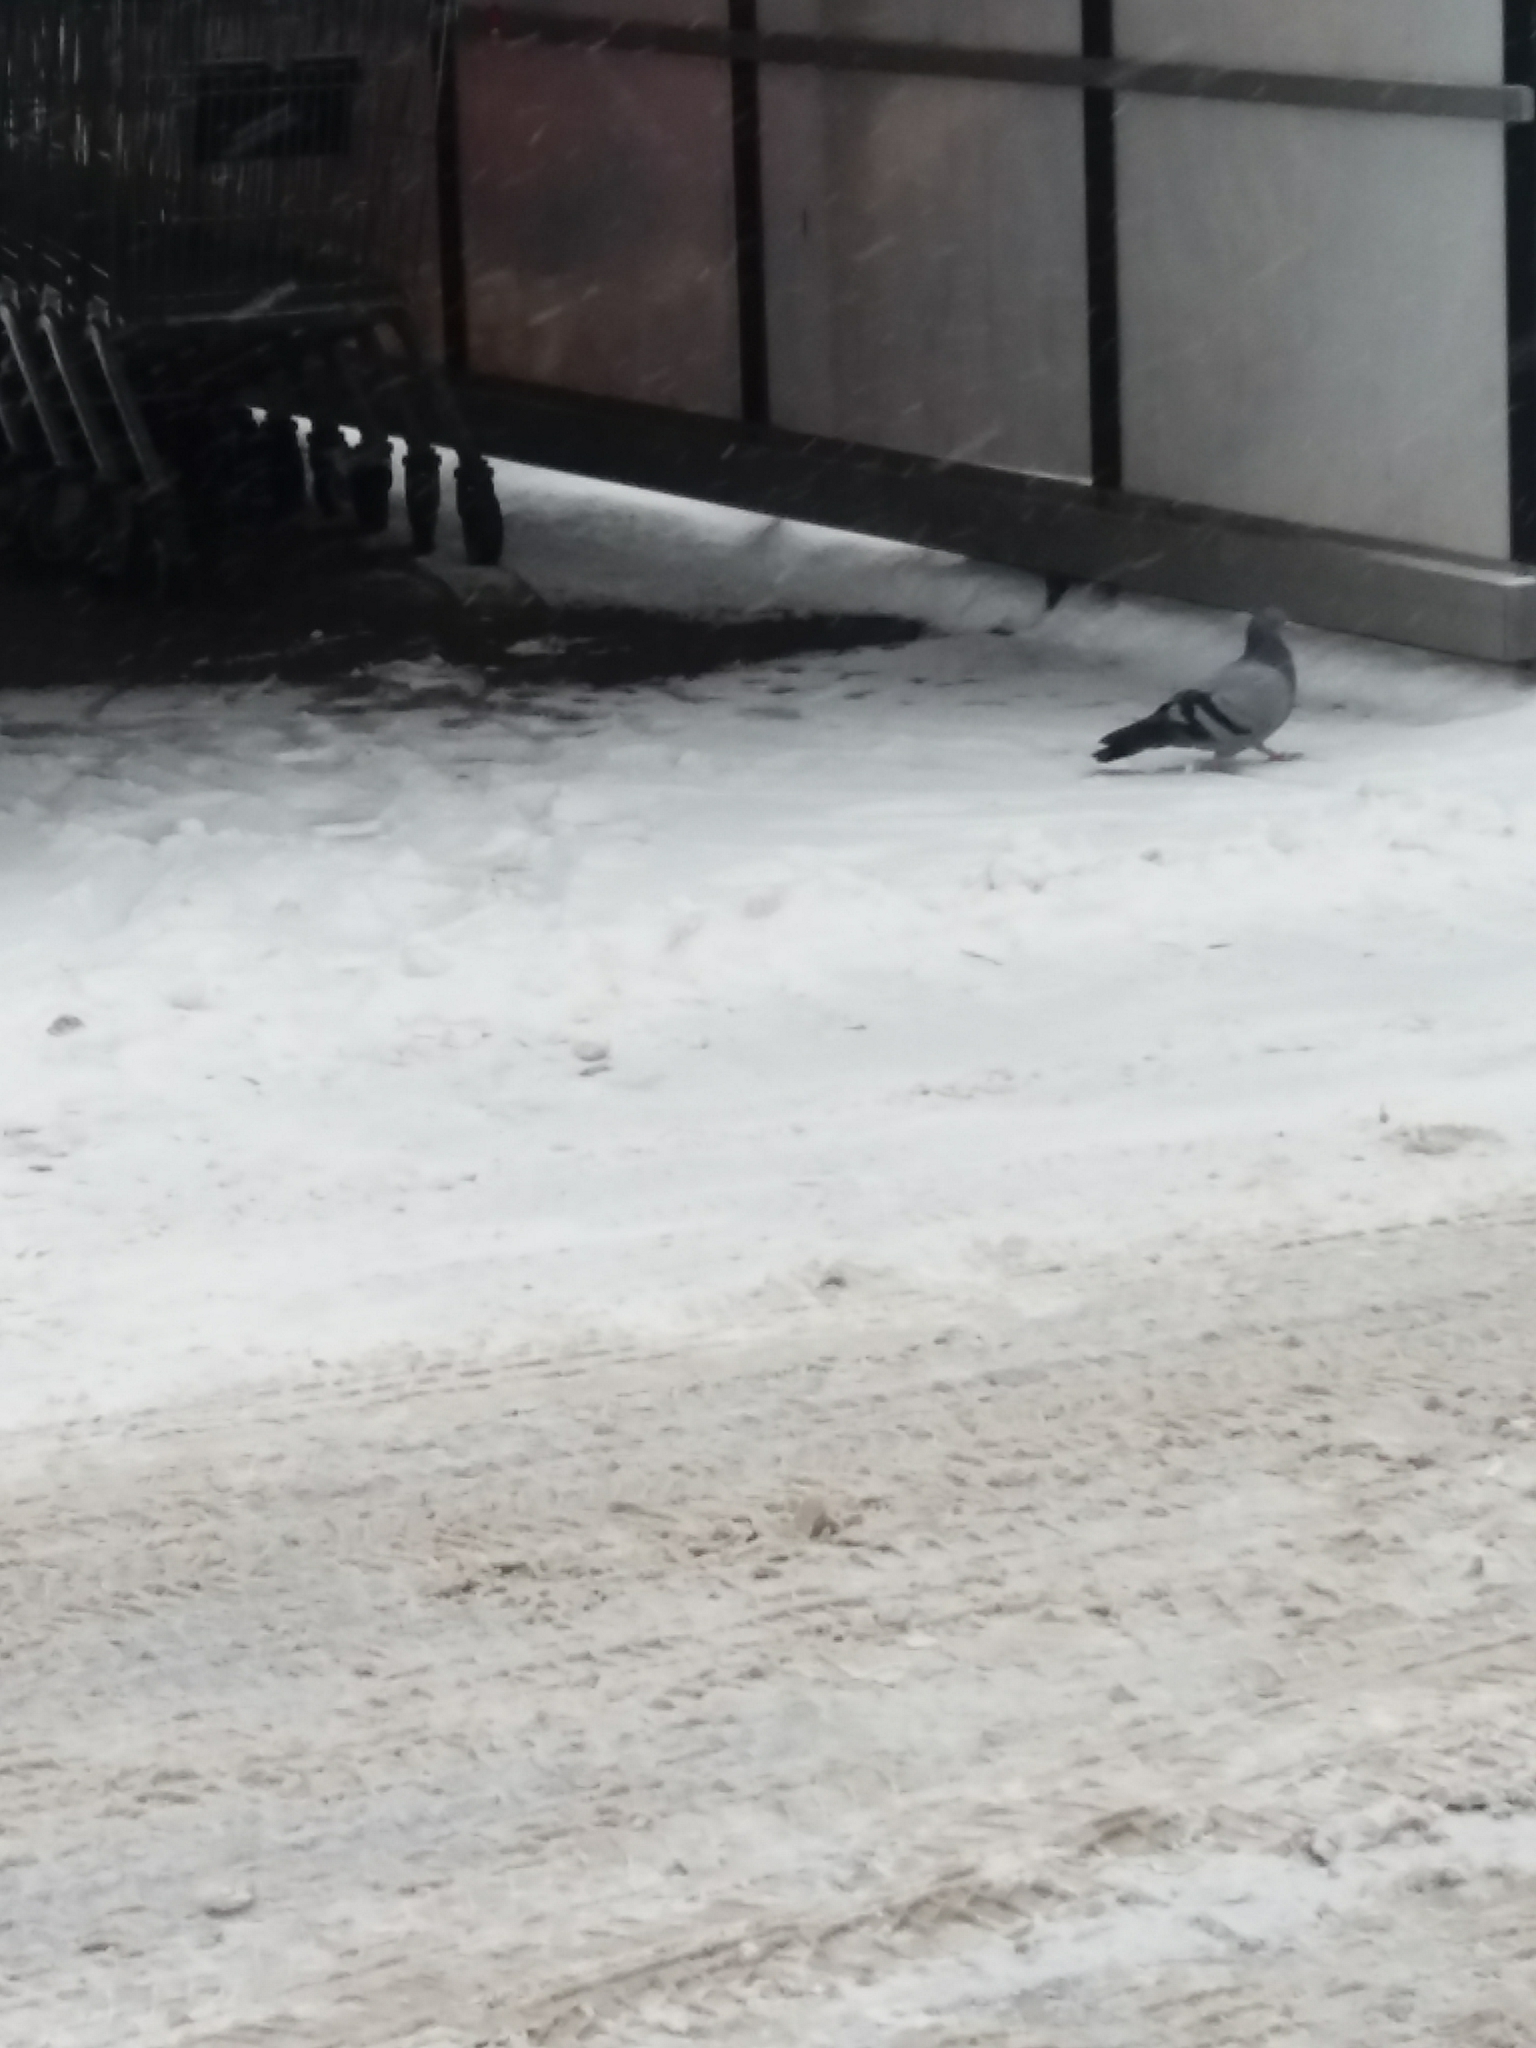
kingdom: Animalia
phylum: Chordata
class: Aves
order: Columbiformes
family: Columbidae
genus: Columba
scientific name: Columba livia
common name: Rock pigeon
